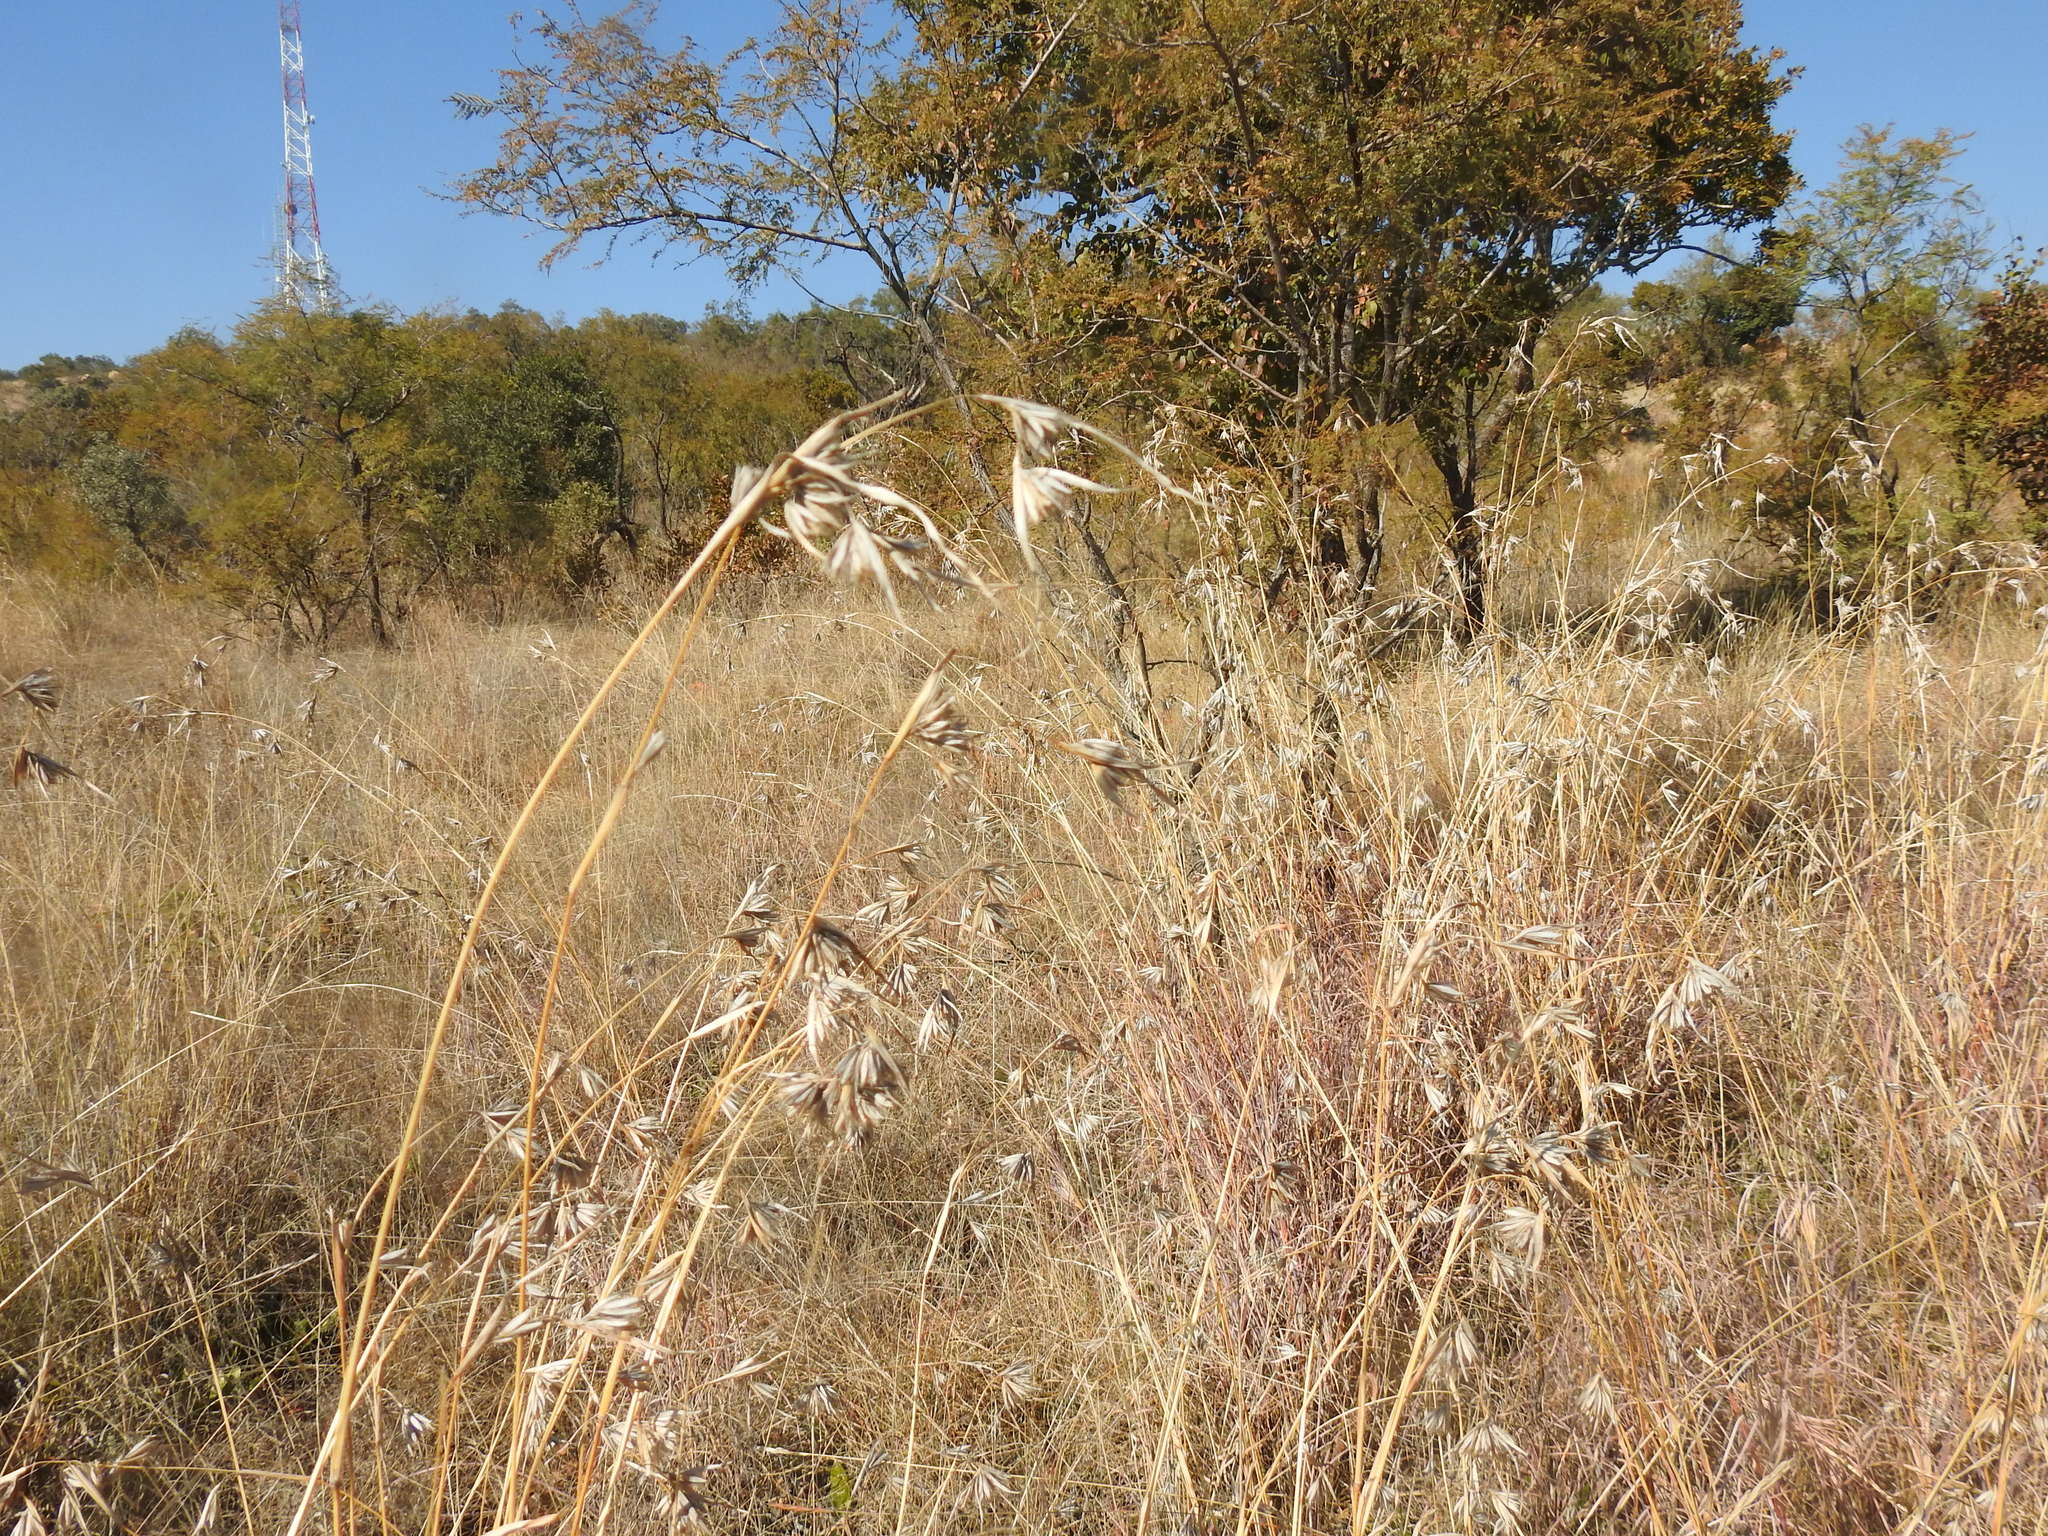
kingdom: Plantae
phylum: Tracheophyta
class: Liliopsida
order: Poales
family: Poaceae
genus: Themeda
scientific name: Themeda triandra
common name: Kangaroo grass
